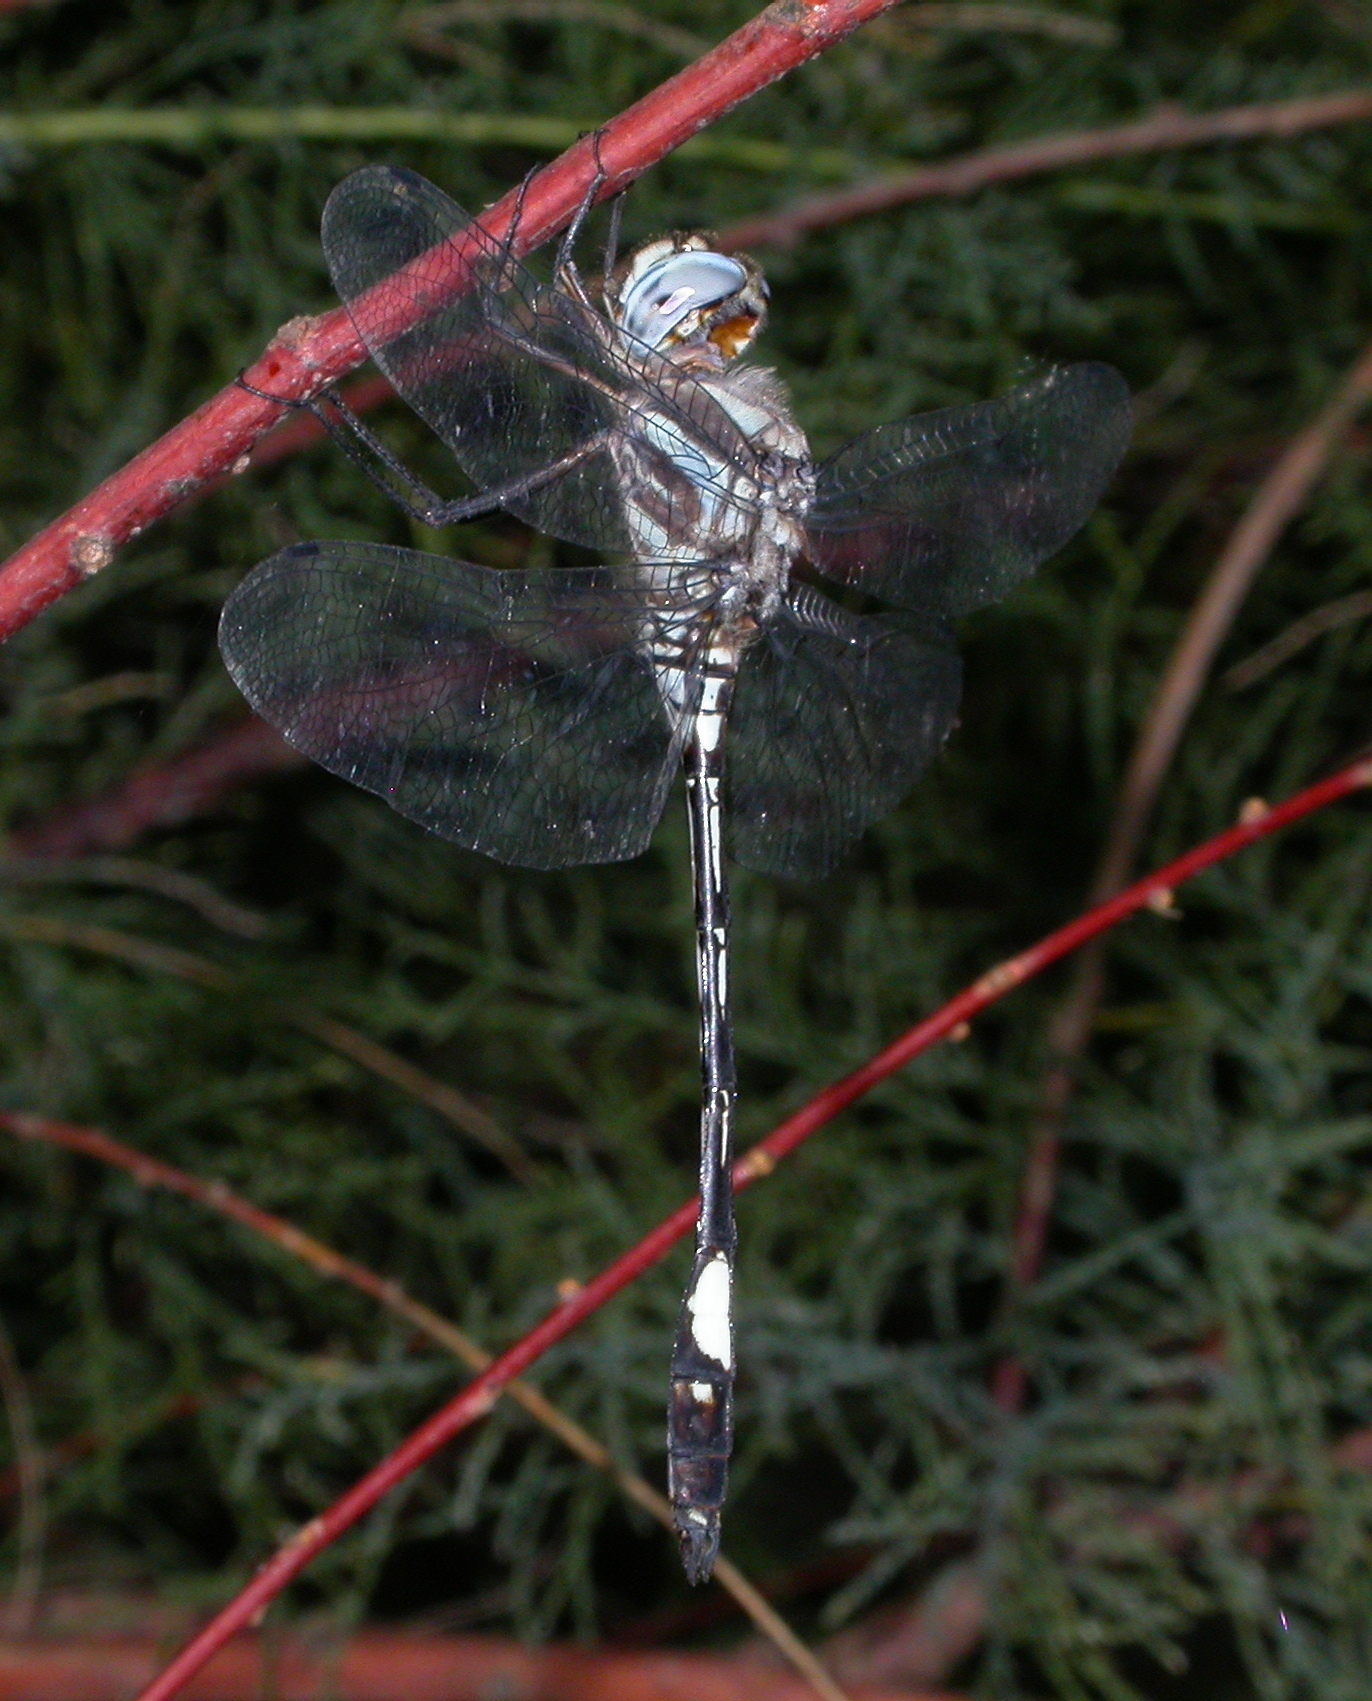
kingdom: Animalia
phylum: Arthropoda
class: Insecta
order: Odonata
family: Libellulidae
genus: Brechmorhoga
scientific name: Brechmorhoga mendax
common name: Pale-faced clubskimmer
